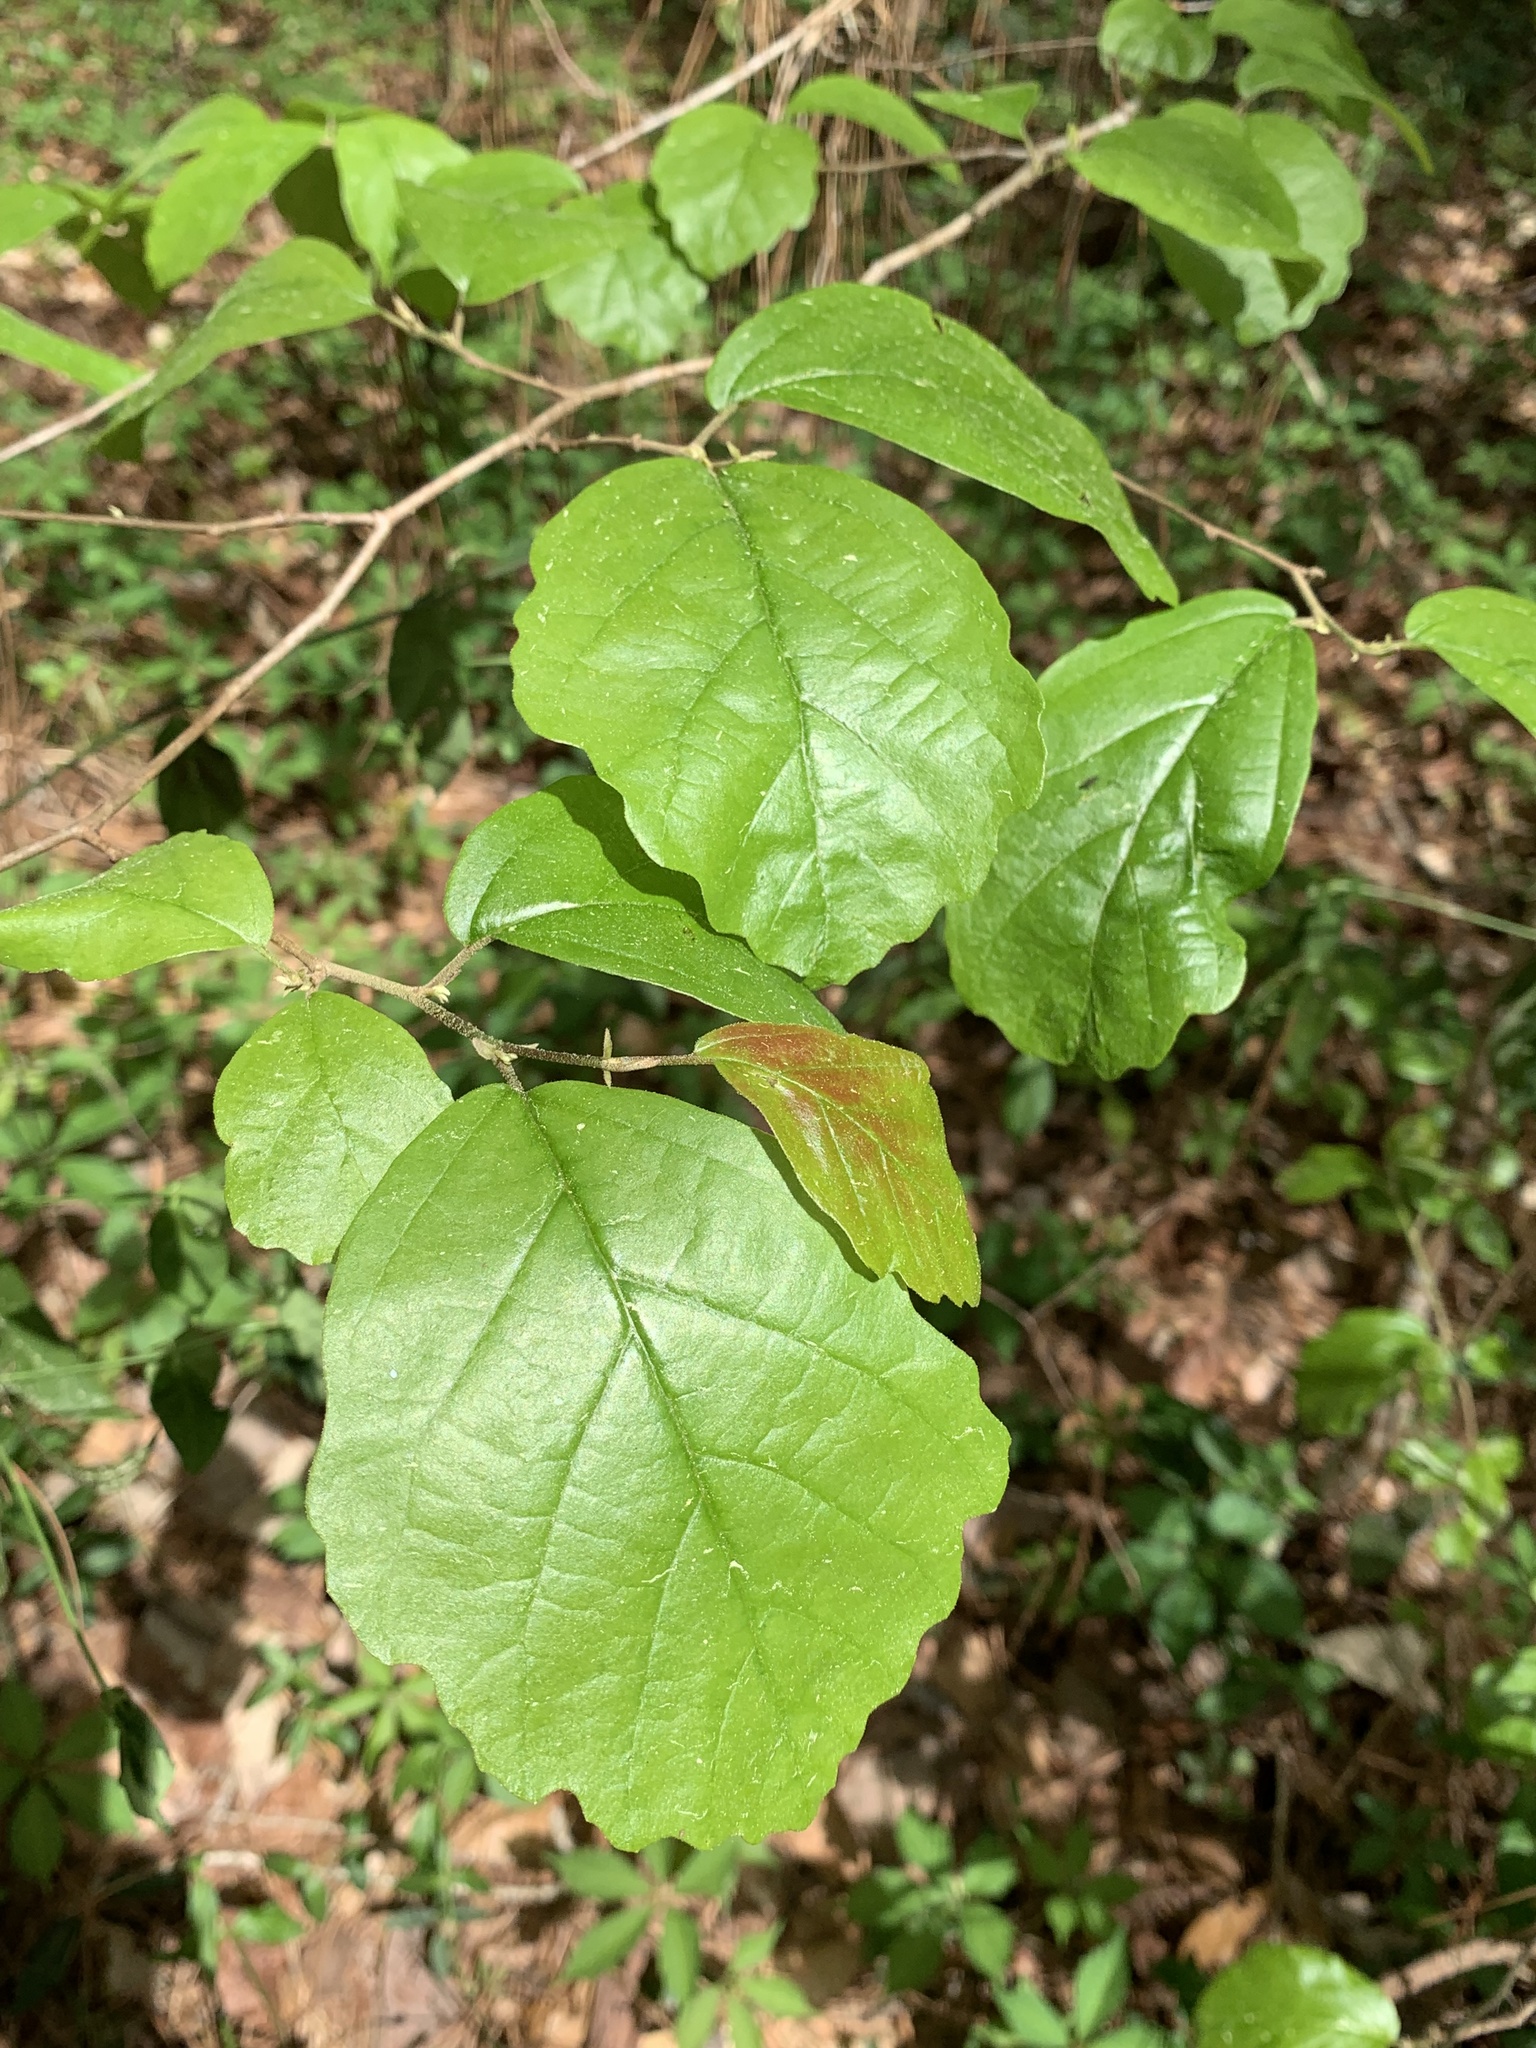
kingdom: Plantae
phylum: Tracheophyta
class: Magnoliopsida
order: Saxifragales
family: Hamamelidaceae
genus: Hamamelis
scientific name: Hamamelis virginiana
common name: Witch-hazel
